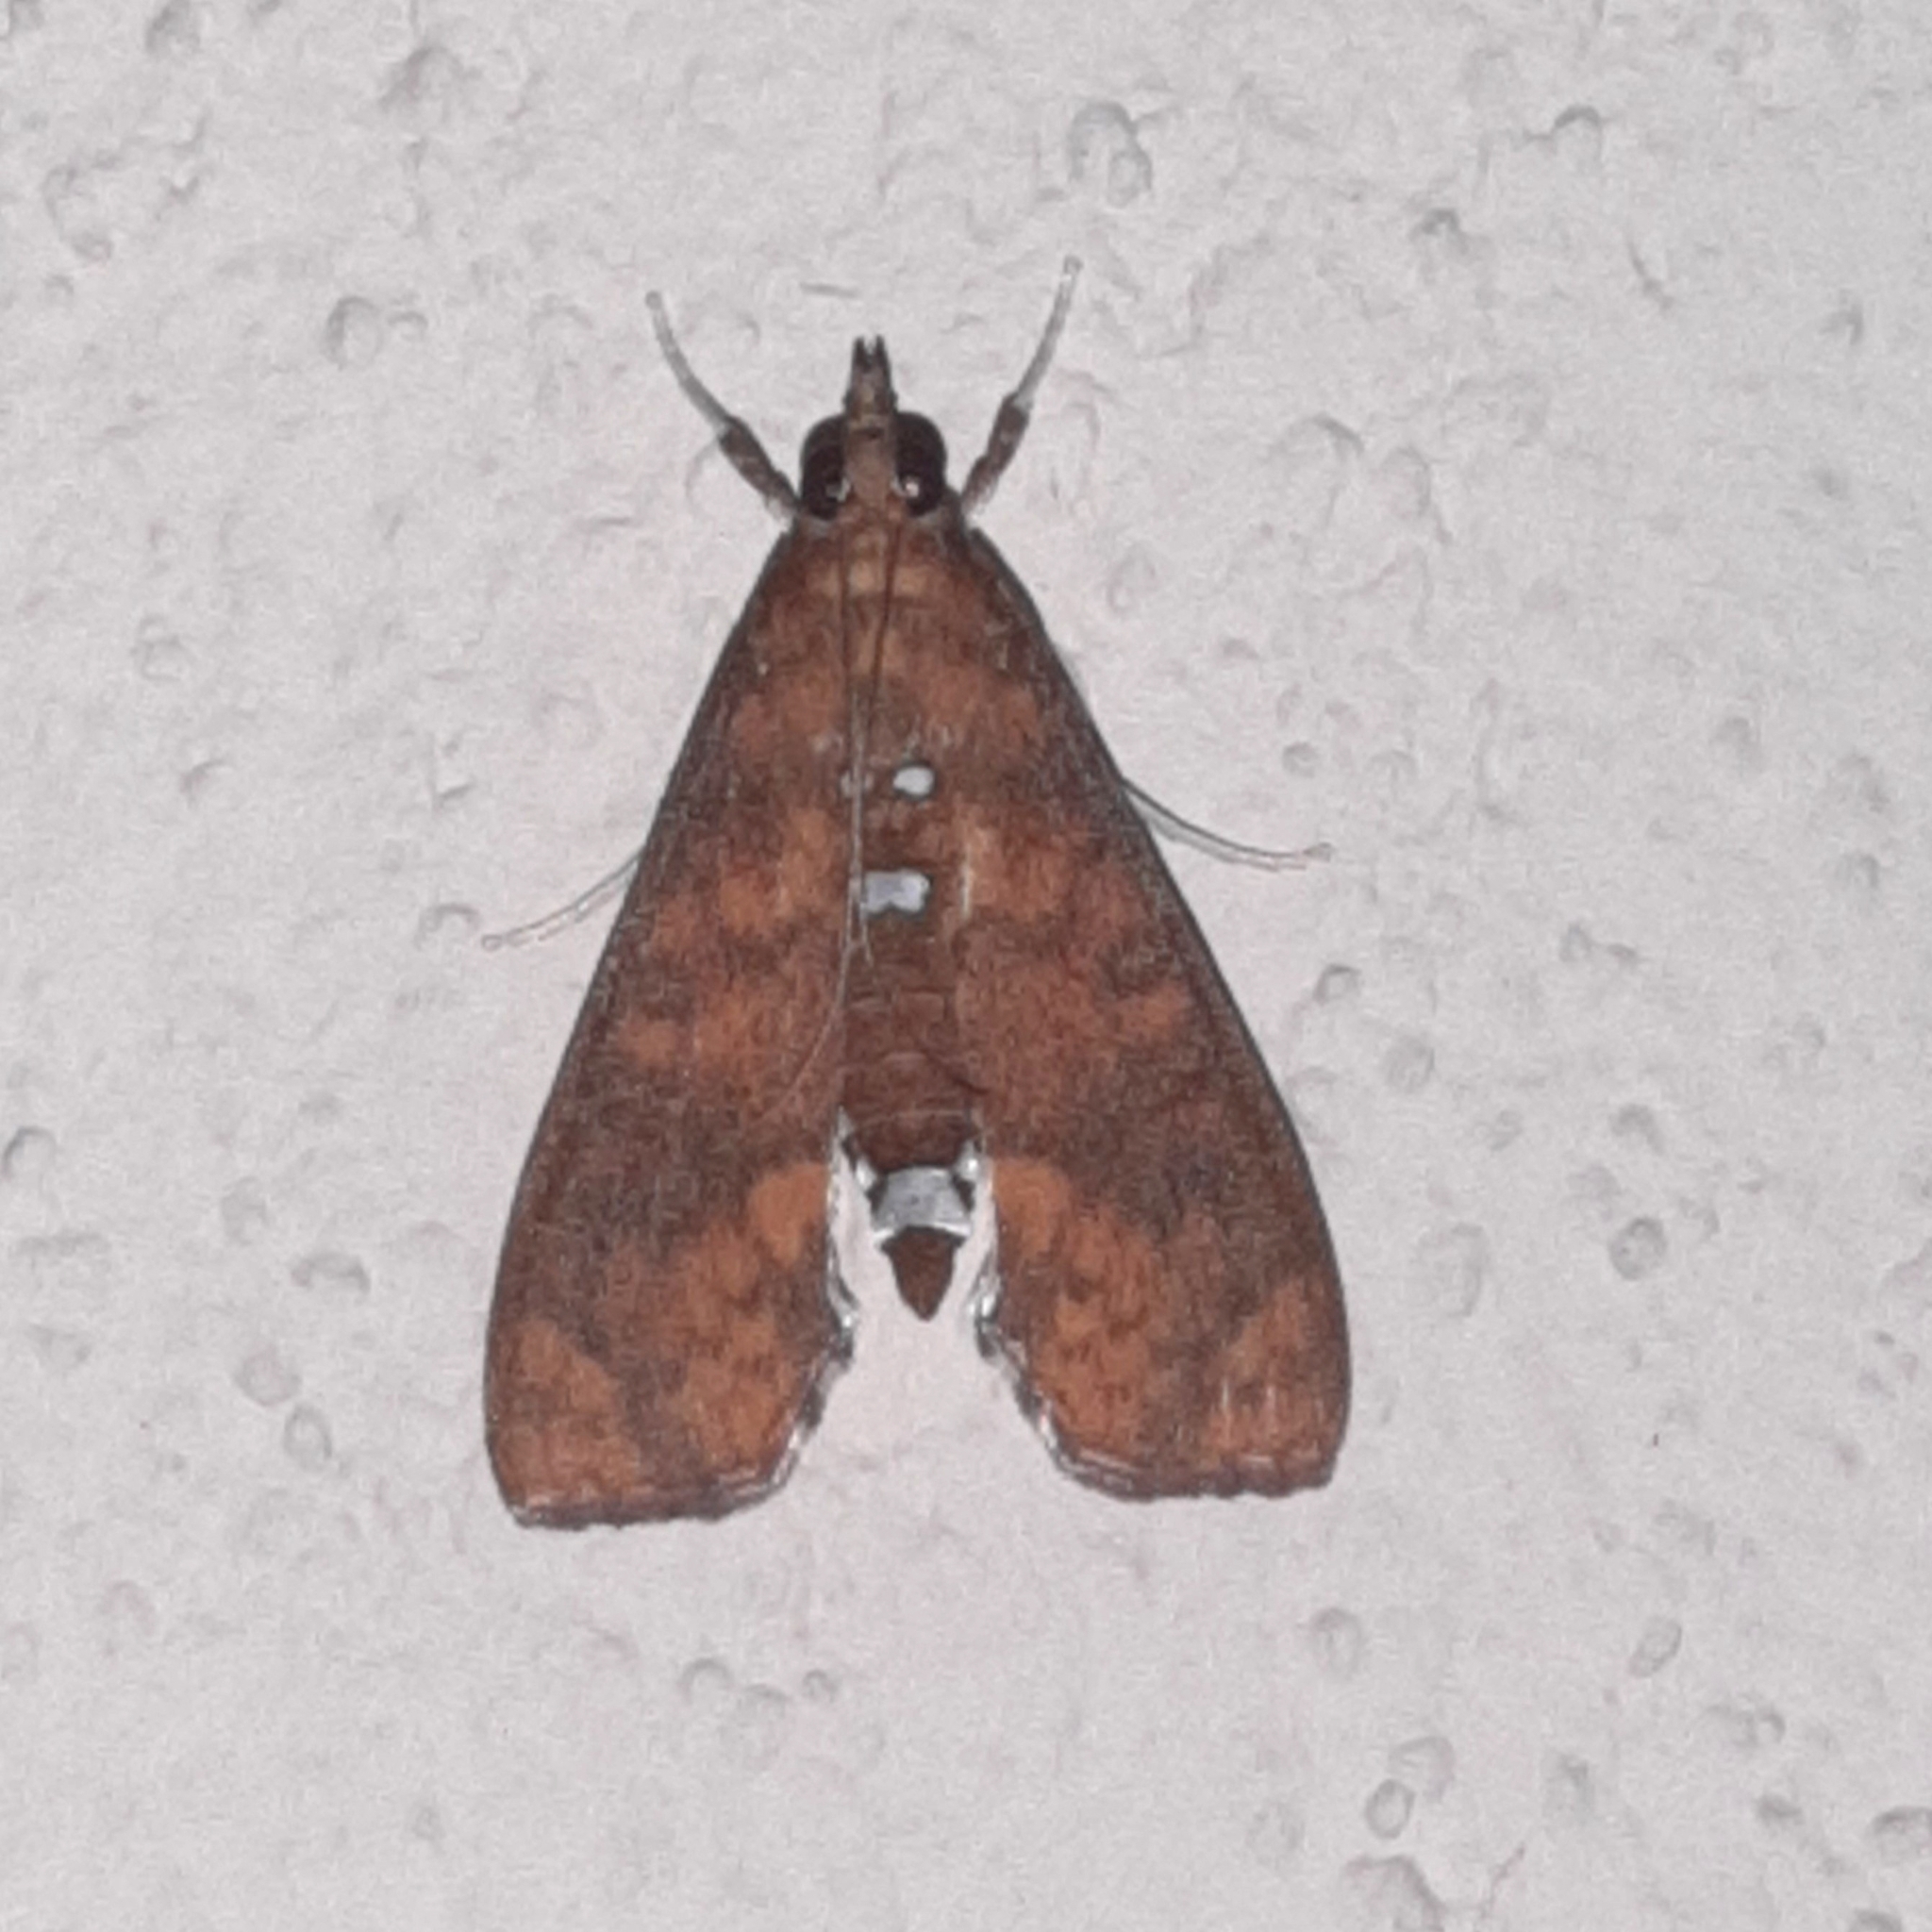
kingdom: Animalia
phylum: Arthropoda
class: Insecta
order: Lepidoptera
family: Crambidae
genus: Liopasia
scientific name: Liopasia ochracealis
